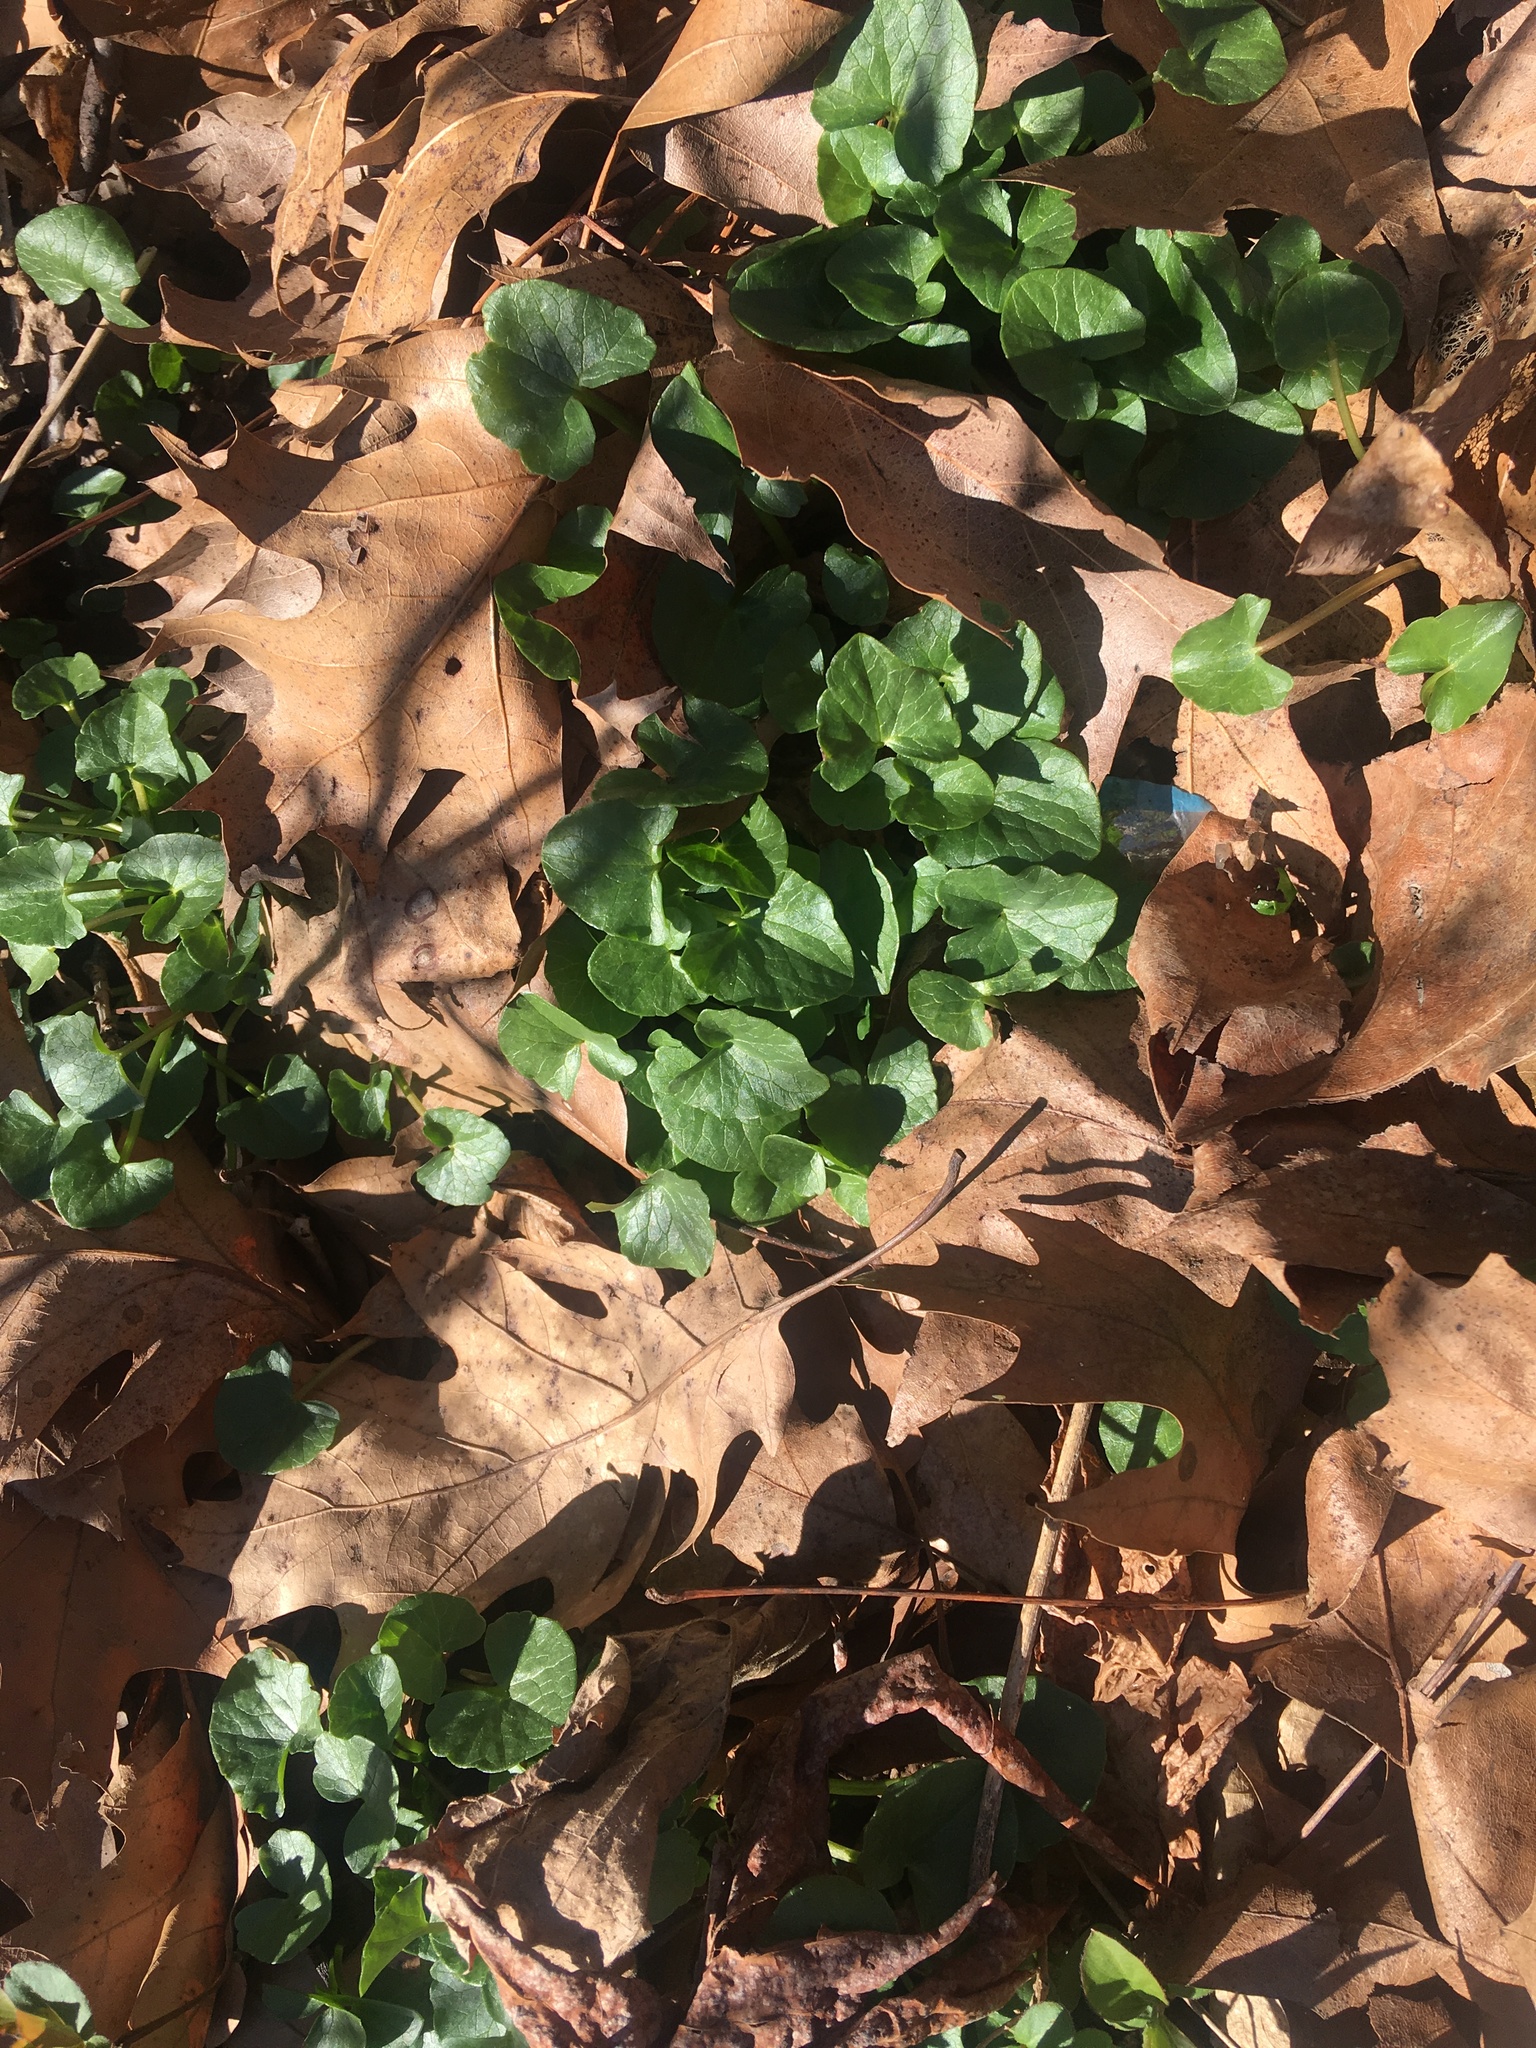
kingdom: Plantae
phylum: Tracheophyta
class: Magnoliopsida
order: Ranunculales
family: Ranunculaceae
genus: Ficaria
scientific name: Ficaria verna
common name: Lesser celandine
